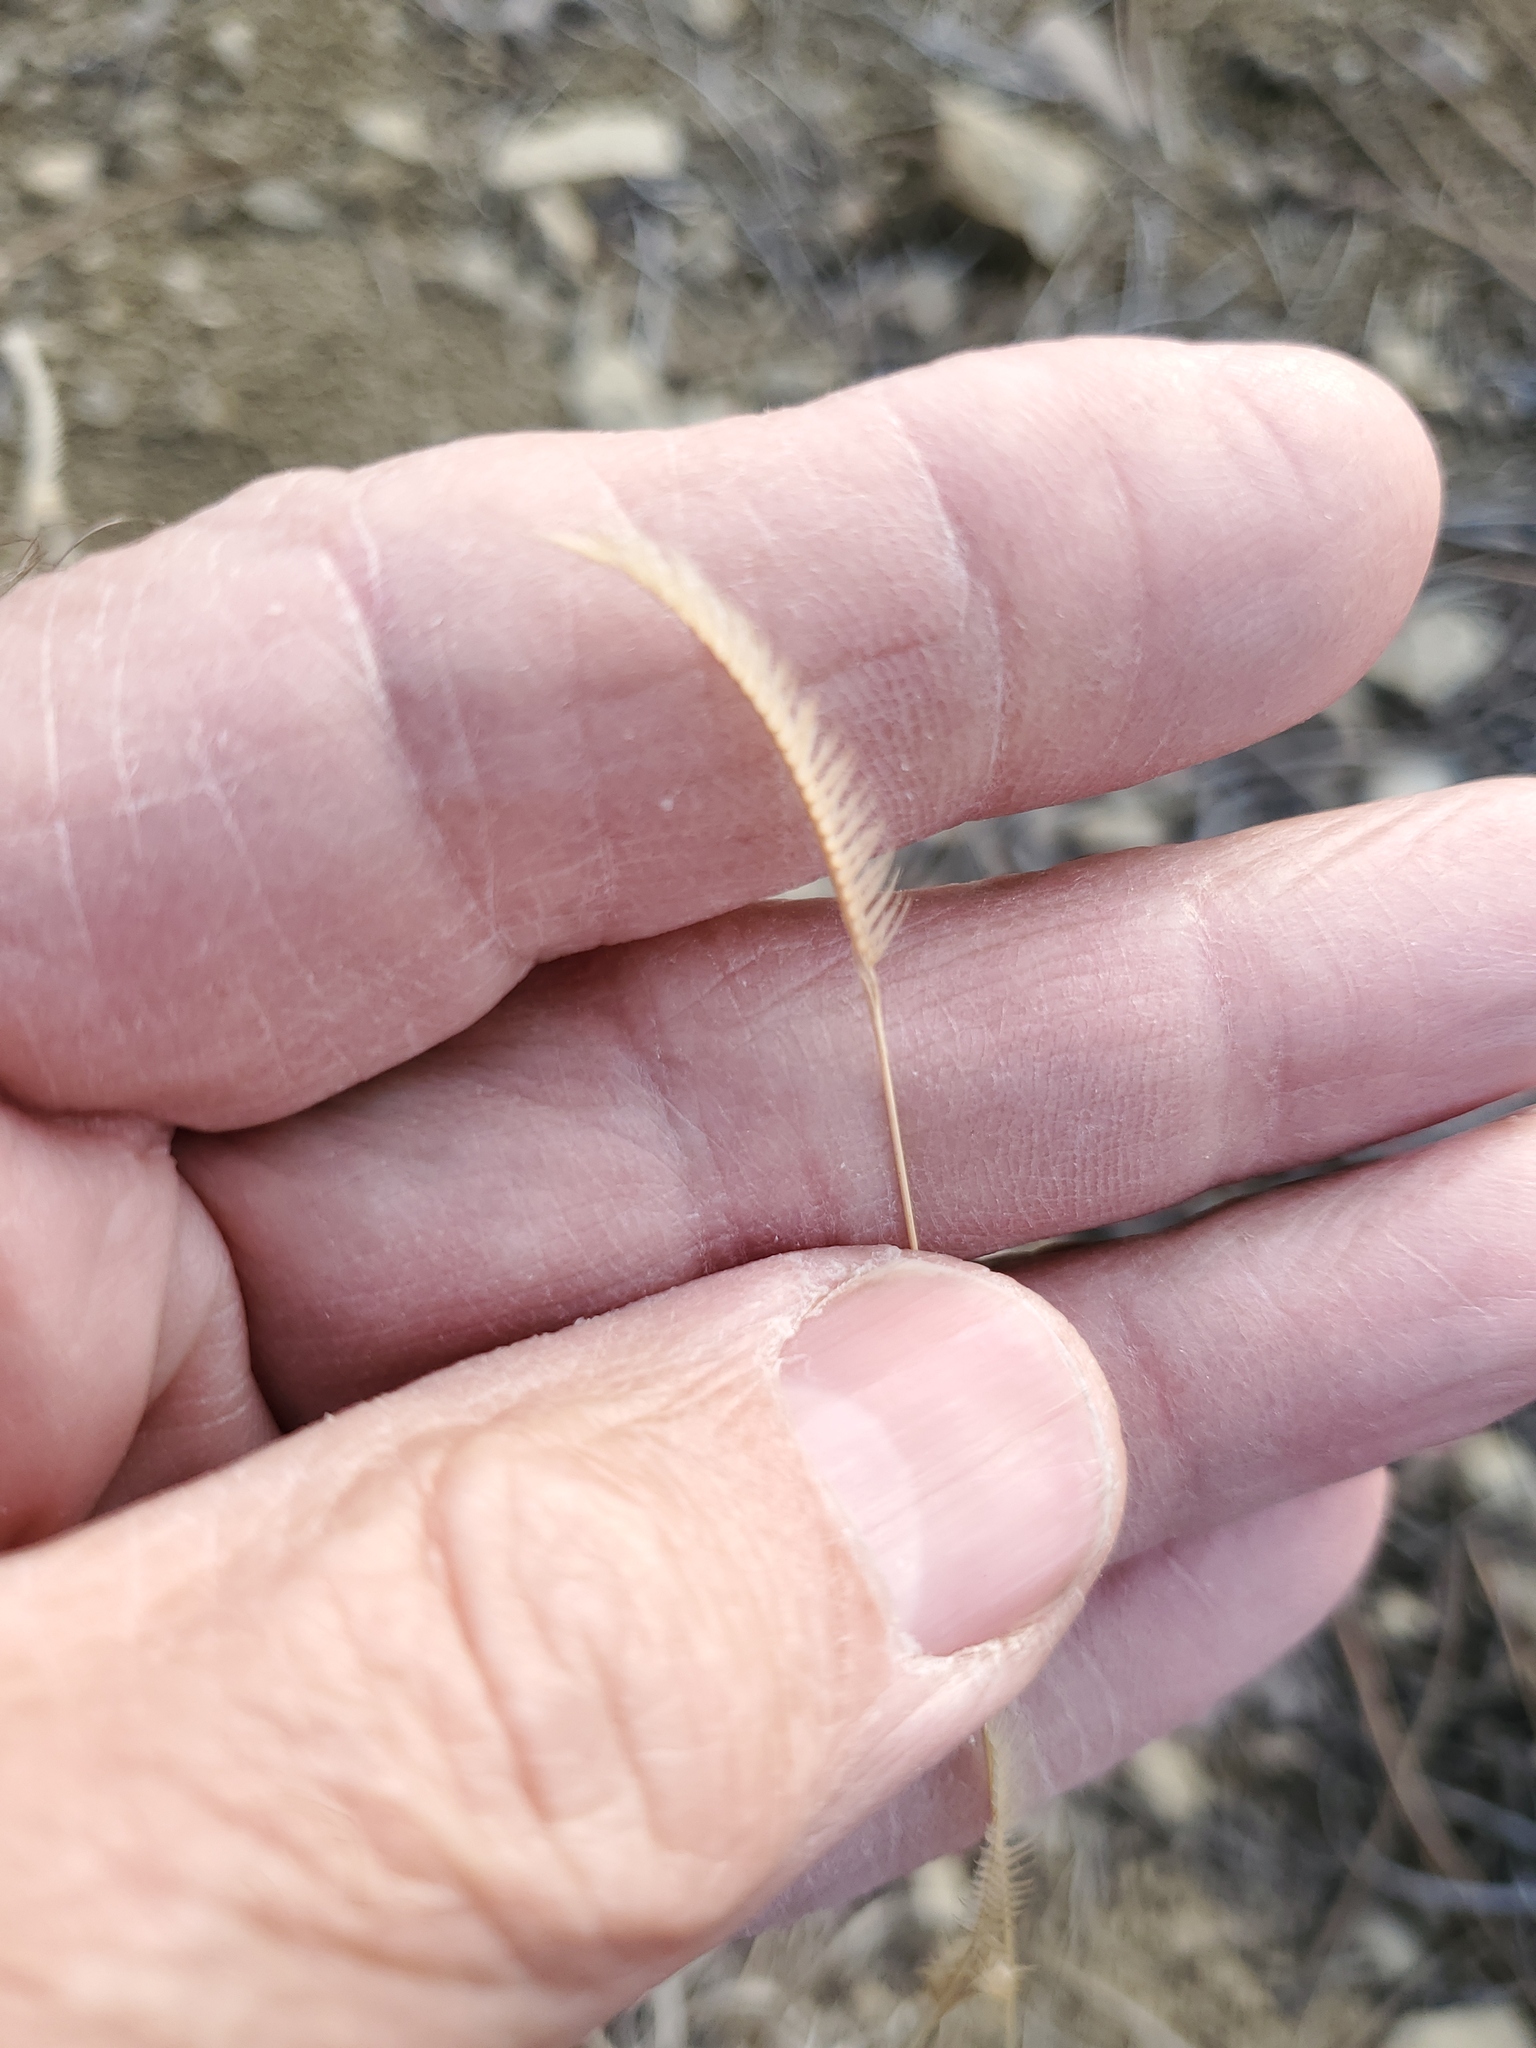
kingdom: Plantae
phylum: Tracheophyta
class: Liliopsida
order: Poales
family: Poaceae
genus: Bouteloua
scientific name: Bouteloua gracilis
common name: Blue grama
